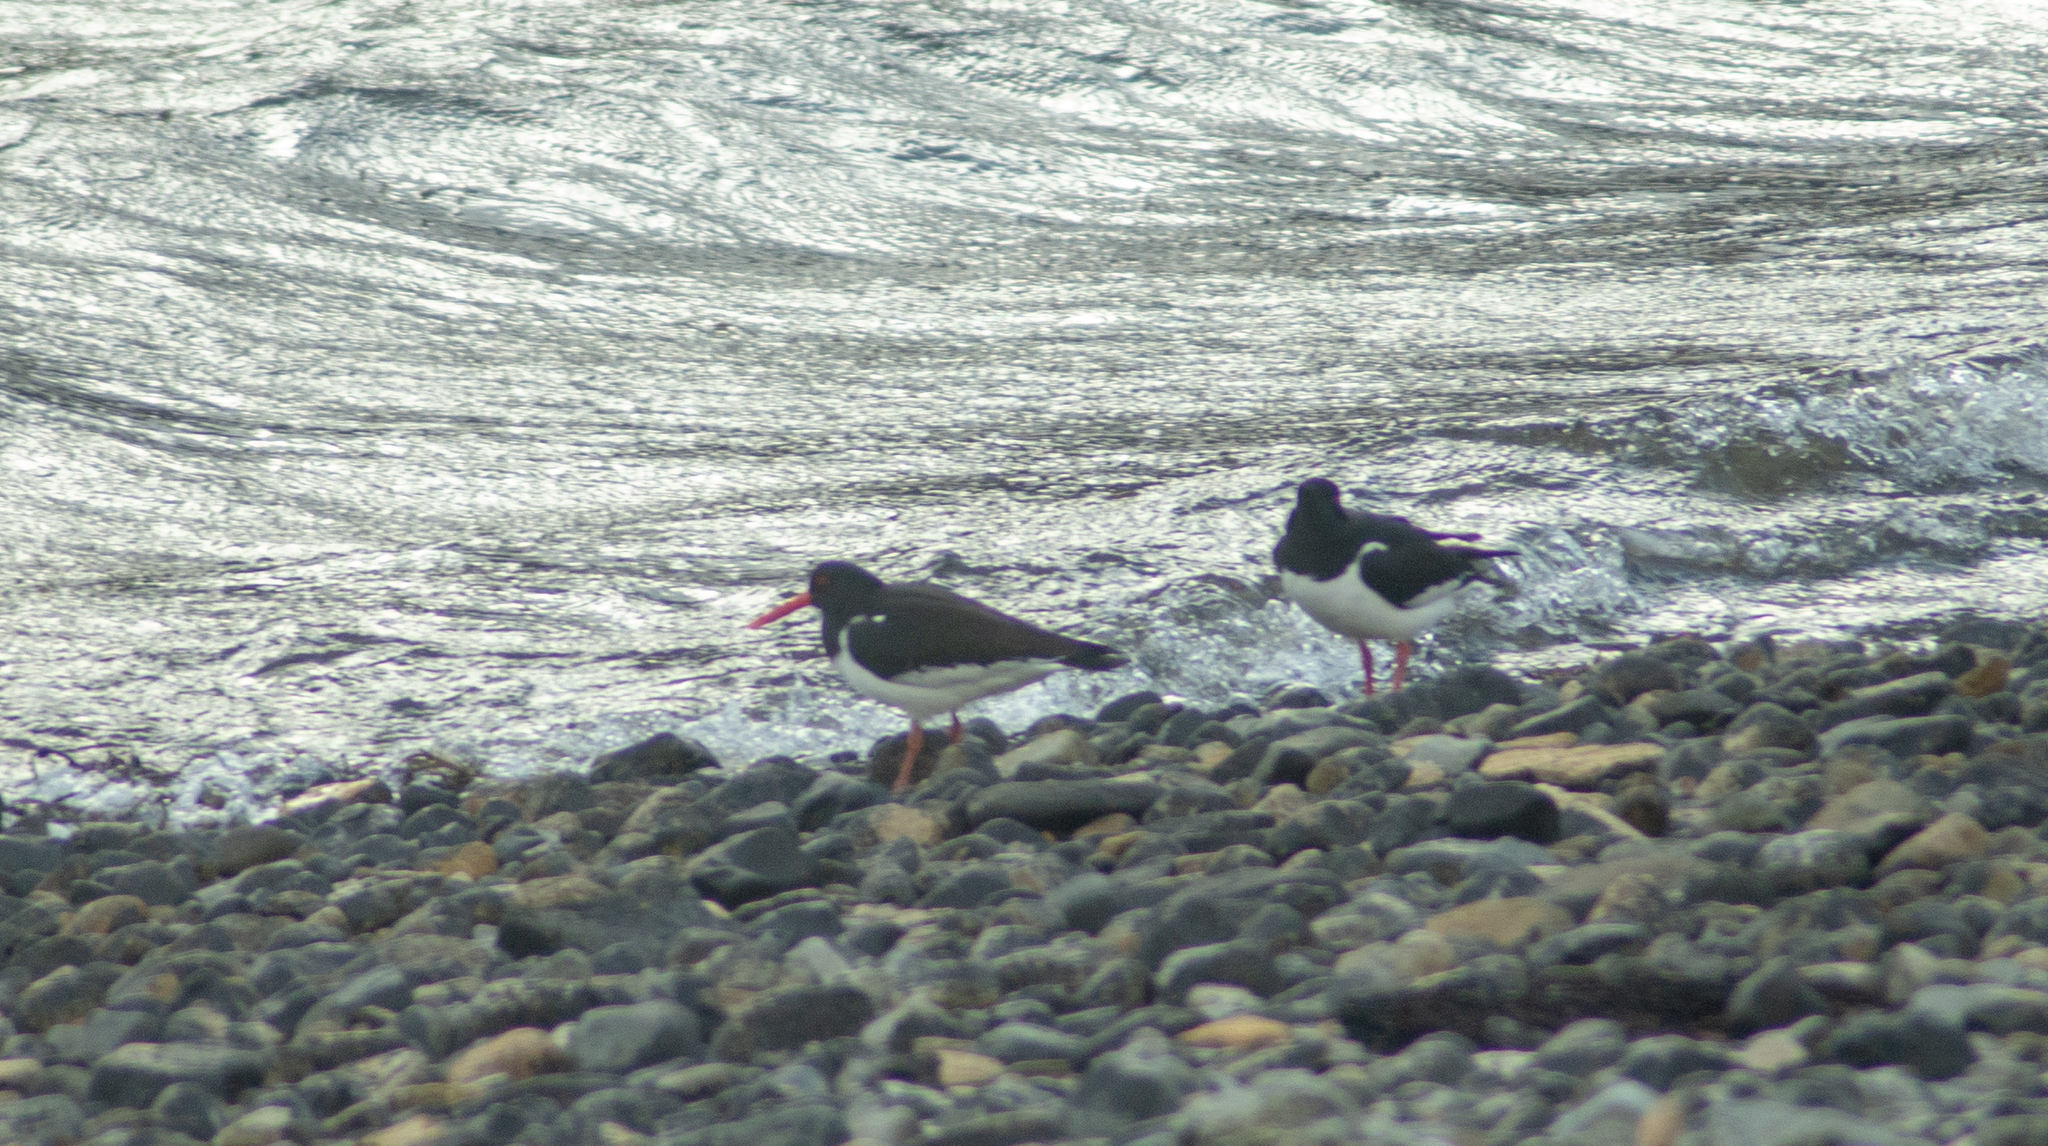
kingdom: Animalia
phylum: Chordata
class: Aves
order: Charadriiformes
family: Haematopodidae
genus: Haematopus
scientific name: Haematopus ostralegus
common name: Eurasian oystercatcher
